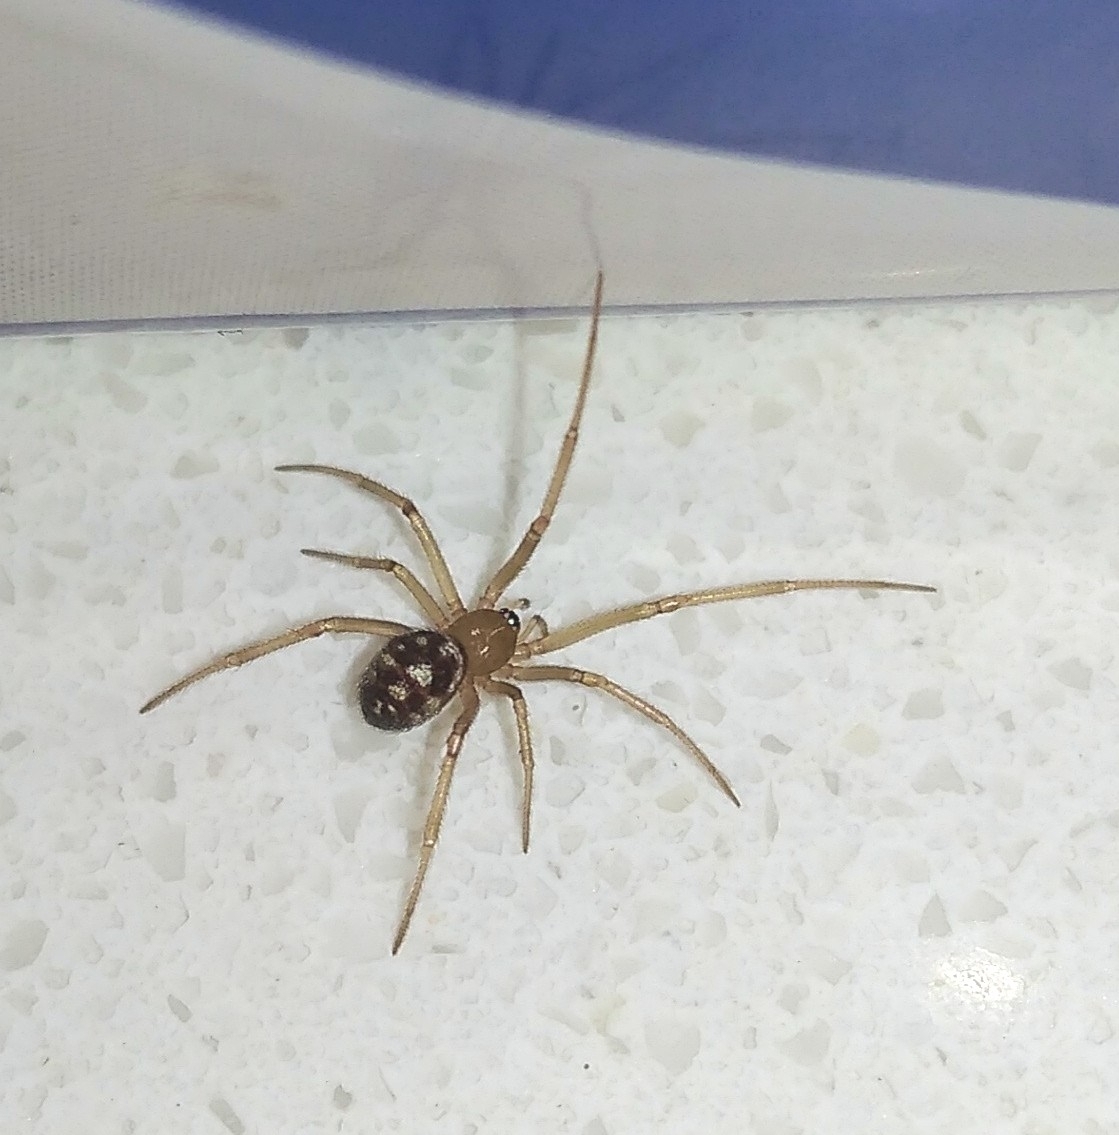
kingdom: Animalia
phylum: Arthropoda
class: Arachnida
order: Araneae
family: Theridiidae
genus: Steatoda
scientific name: Steatoda grossa
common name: False black widow
